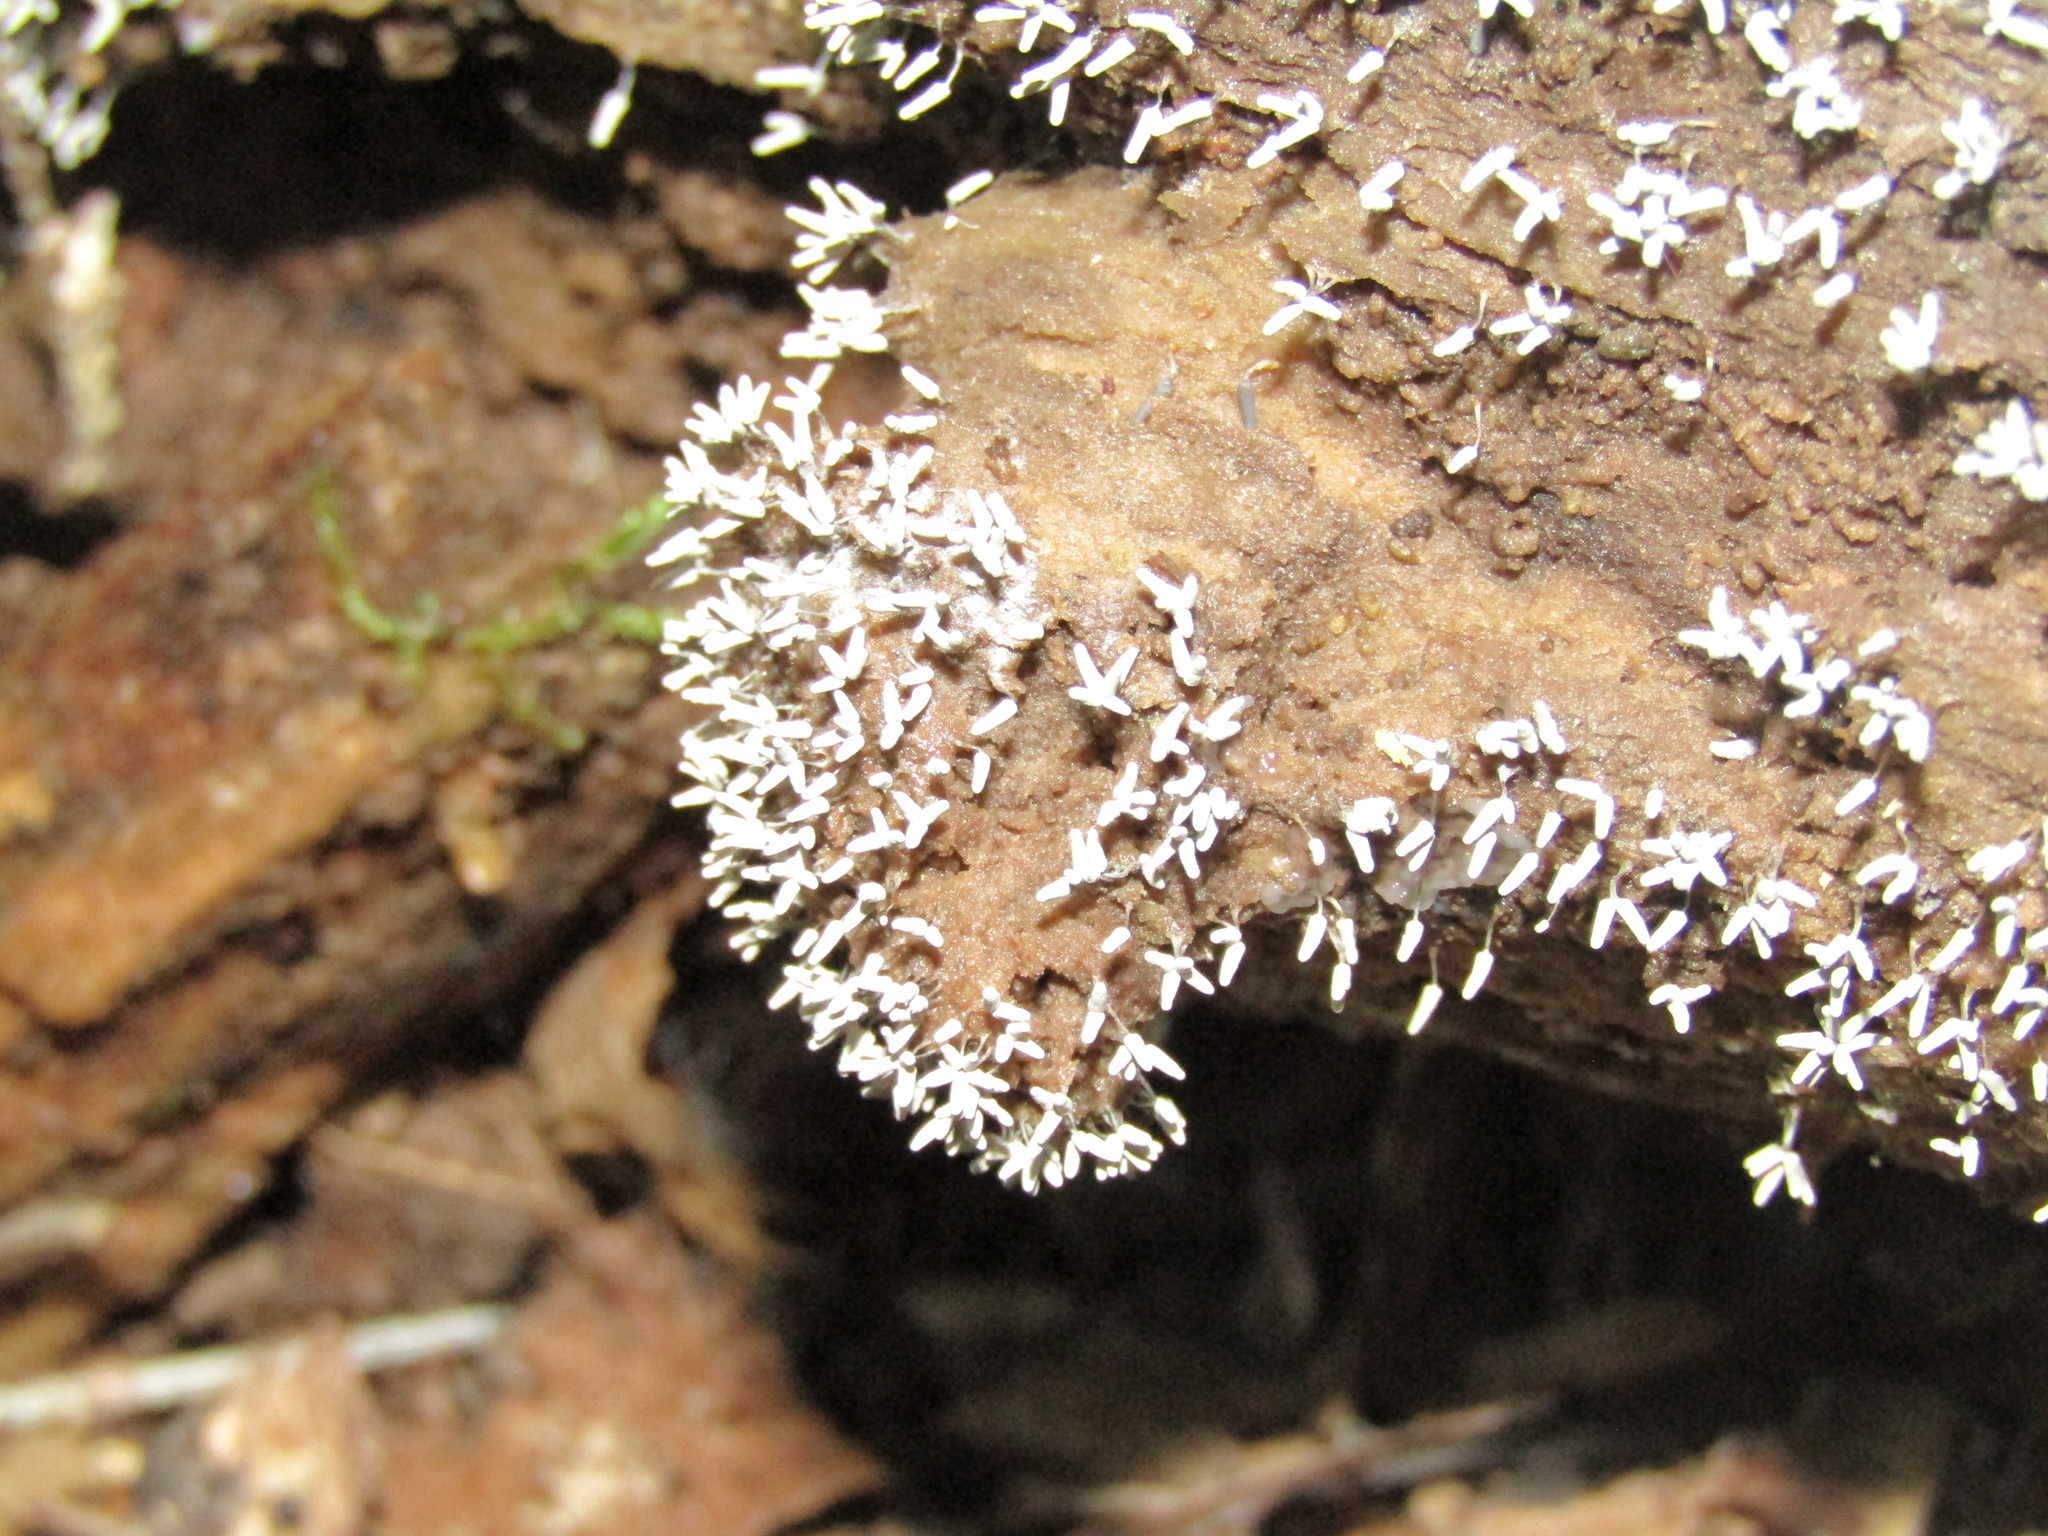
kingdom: Protozoa
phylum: Mycetozoa
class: Myxomycetes
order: Trichiales
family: Arcyriaceae
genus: Arcyria
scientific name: Arcyria cinerea
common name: White carnival candy slime mold
